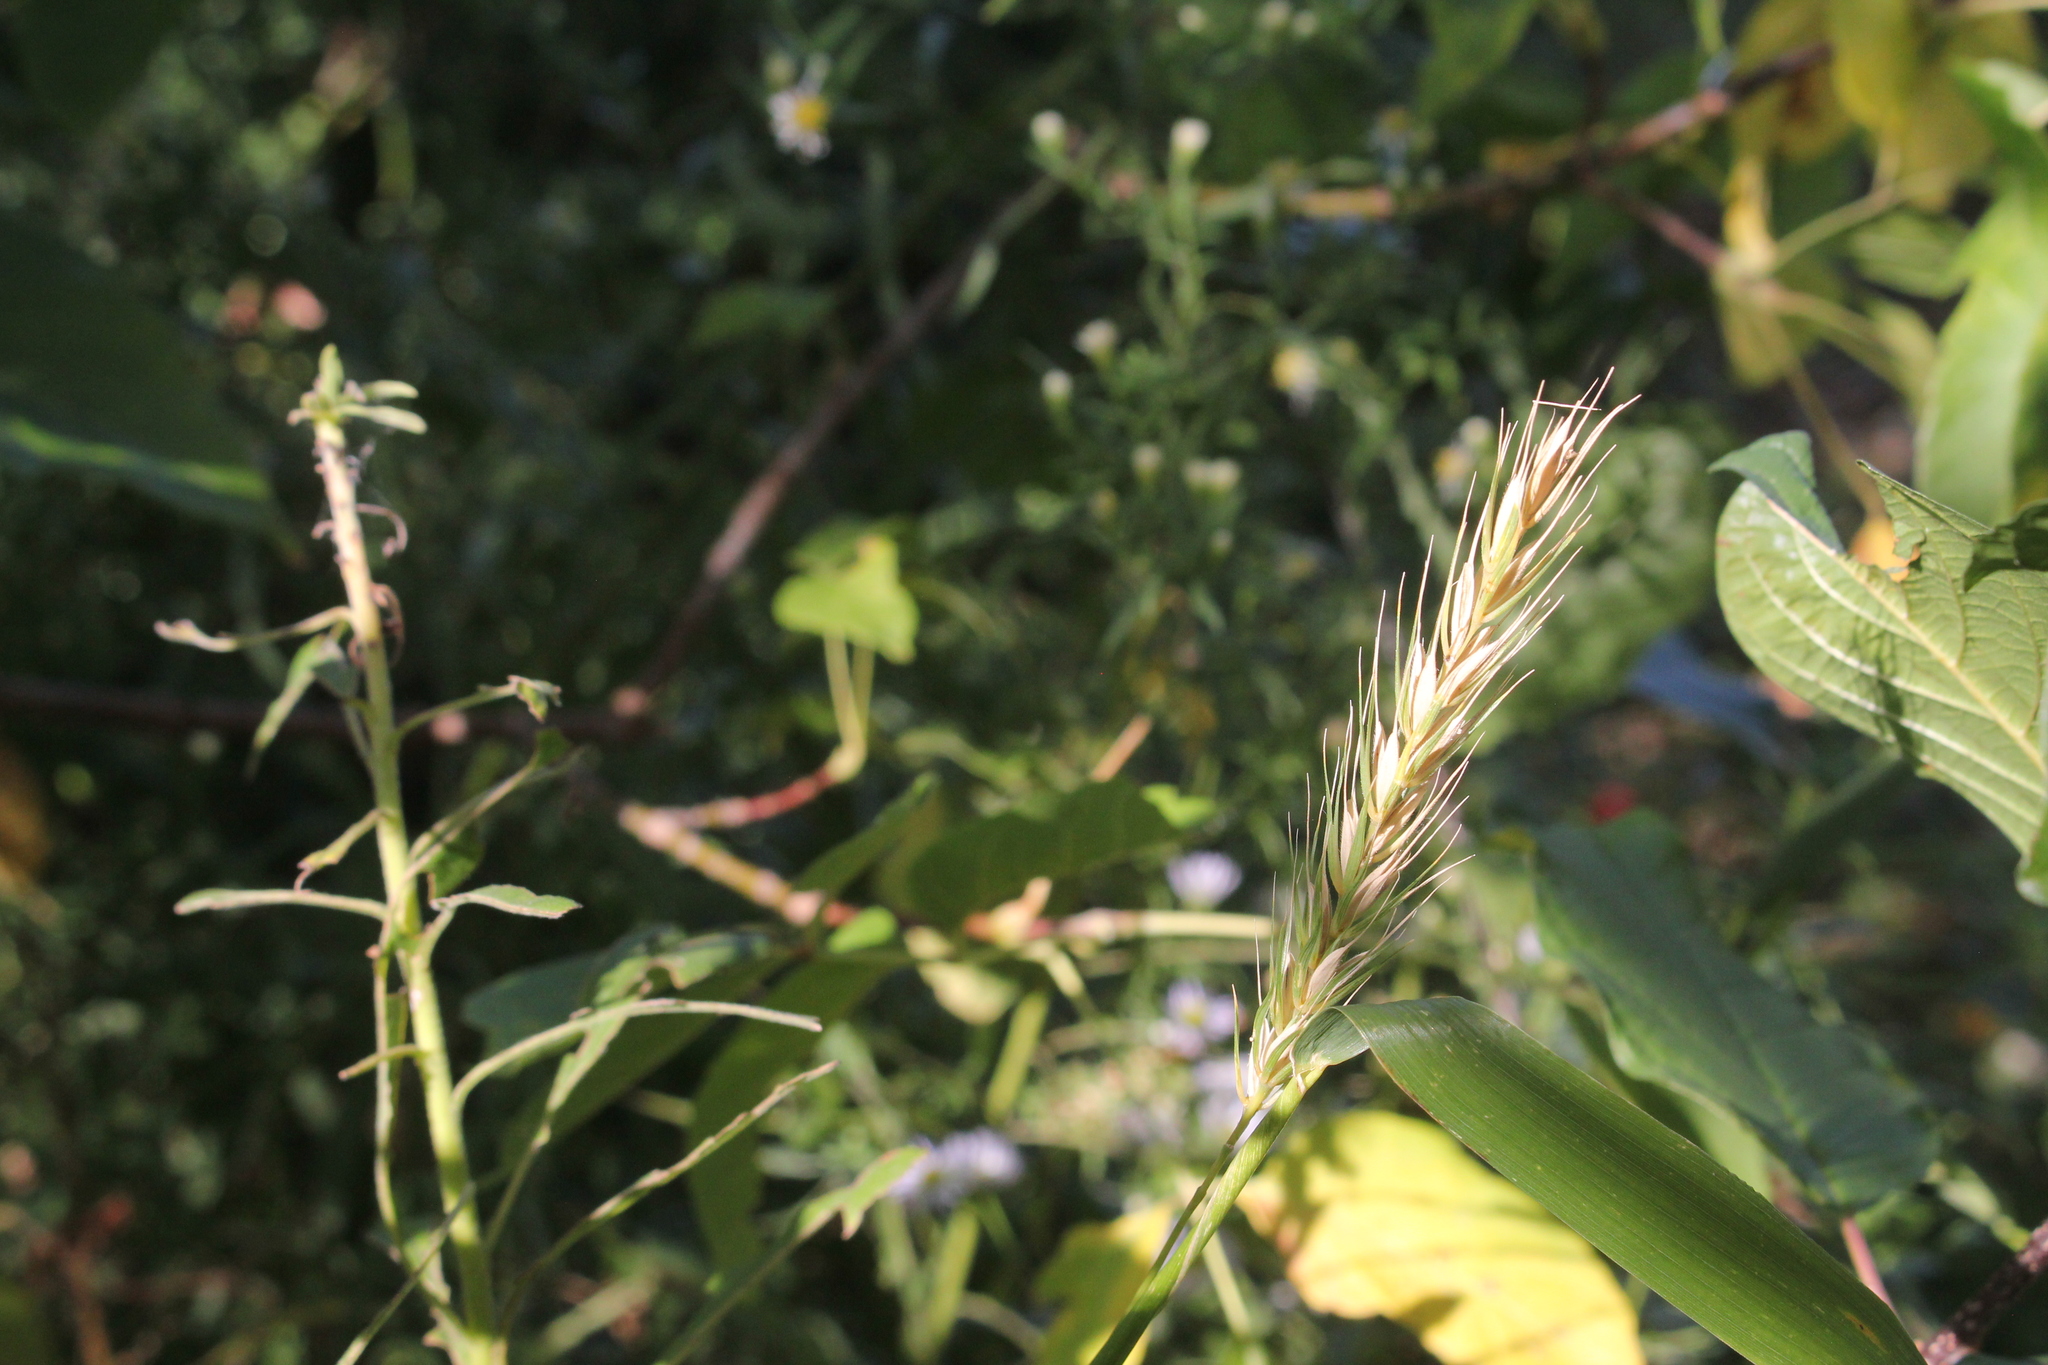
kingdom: Plantae
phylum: Tracheophyta
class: Liliopsida
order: Poales
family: Poaceae
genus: Elymus
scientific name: Elymus virginicus
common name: Common eastern wildrye
